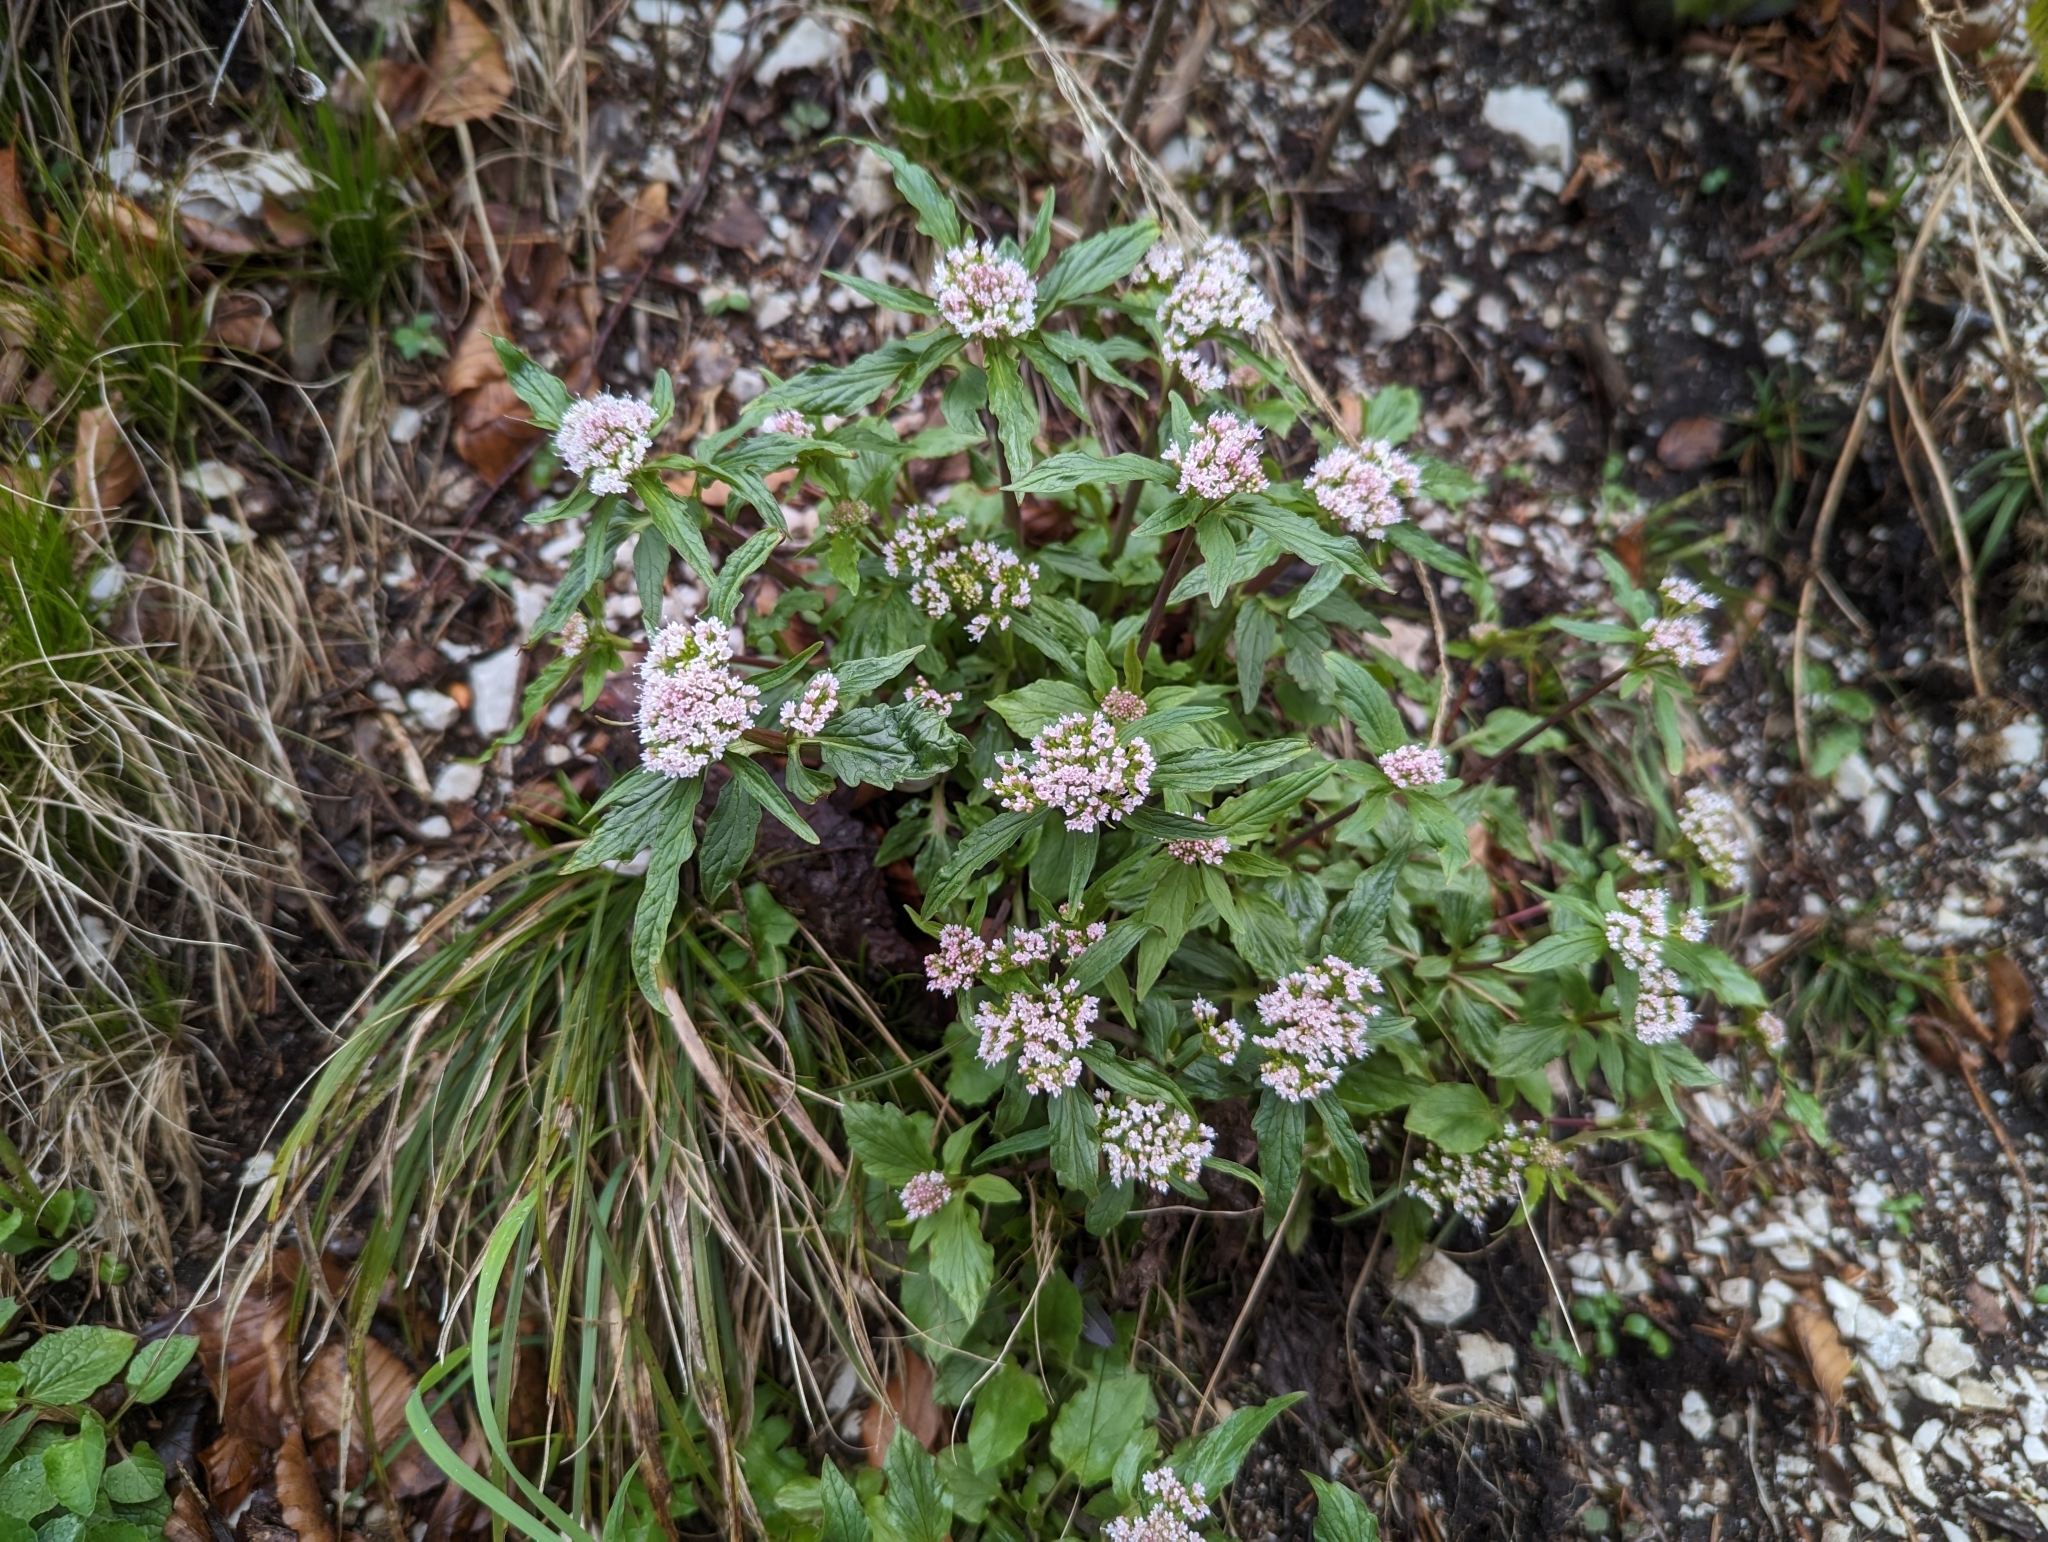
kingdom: Plantae
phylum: Tracheophyta
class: Magnoliopsida
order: Dipsacales
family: Caprifoliaceae
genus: Valeriana
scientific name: Valeriana tripteris
